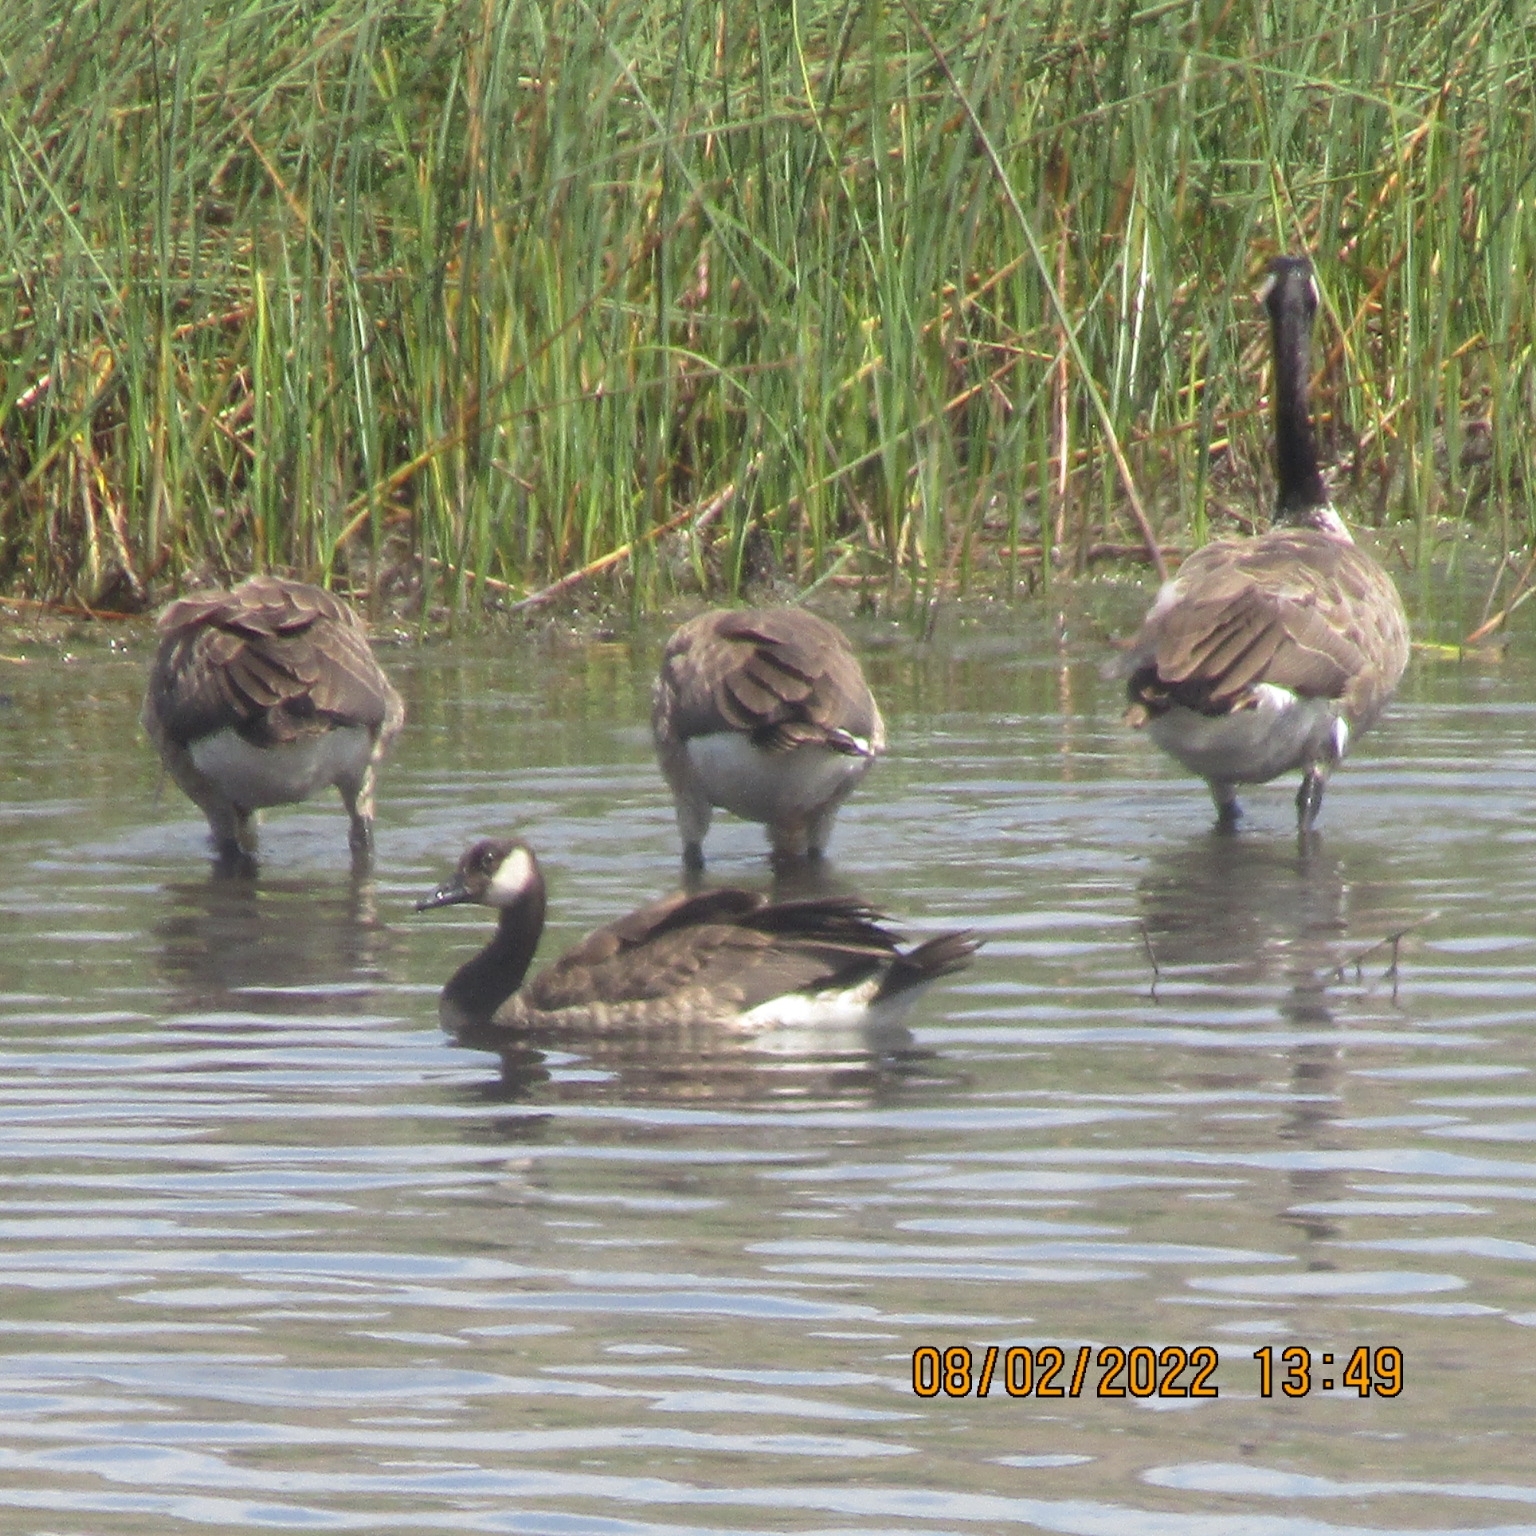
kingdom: Animalia
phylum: Chordata
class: Aves
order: Anseriformes
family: Anatidae
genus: Branta
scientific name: Branta canadensis
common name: Canada goose
